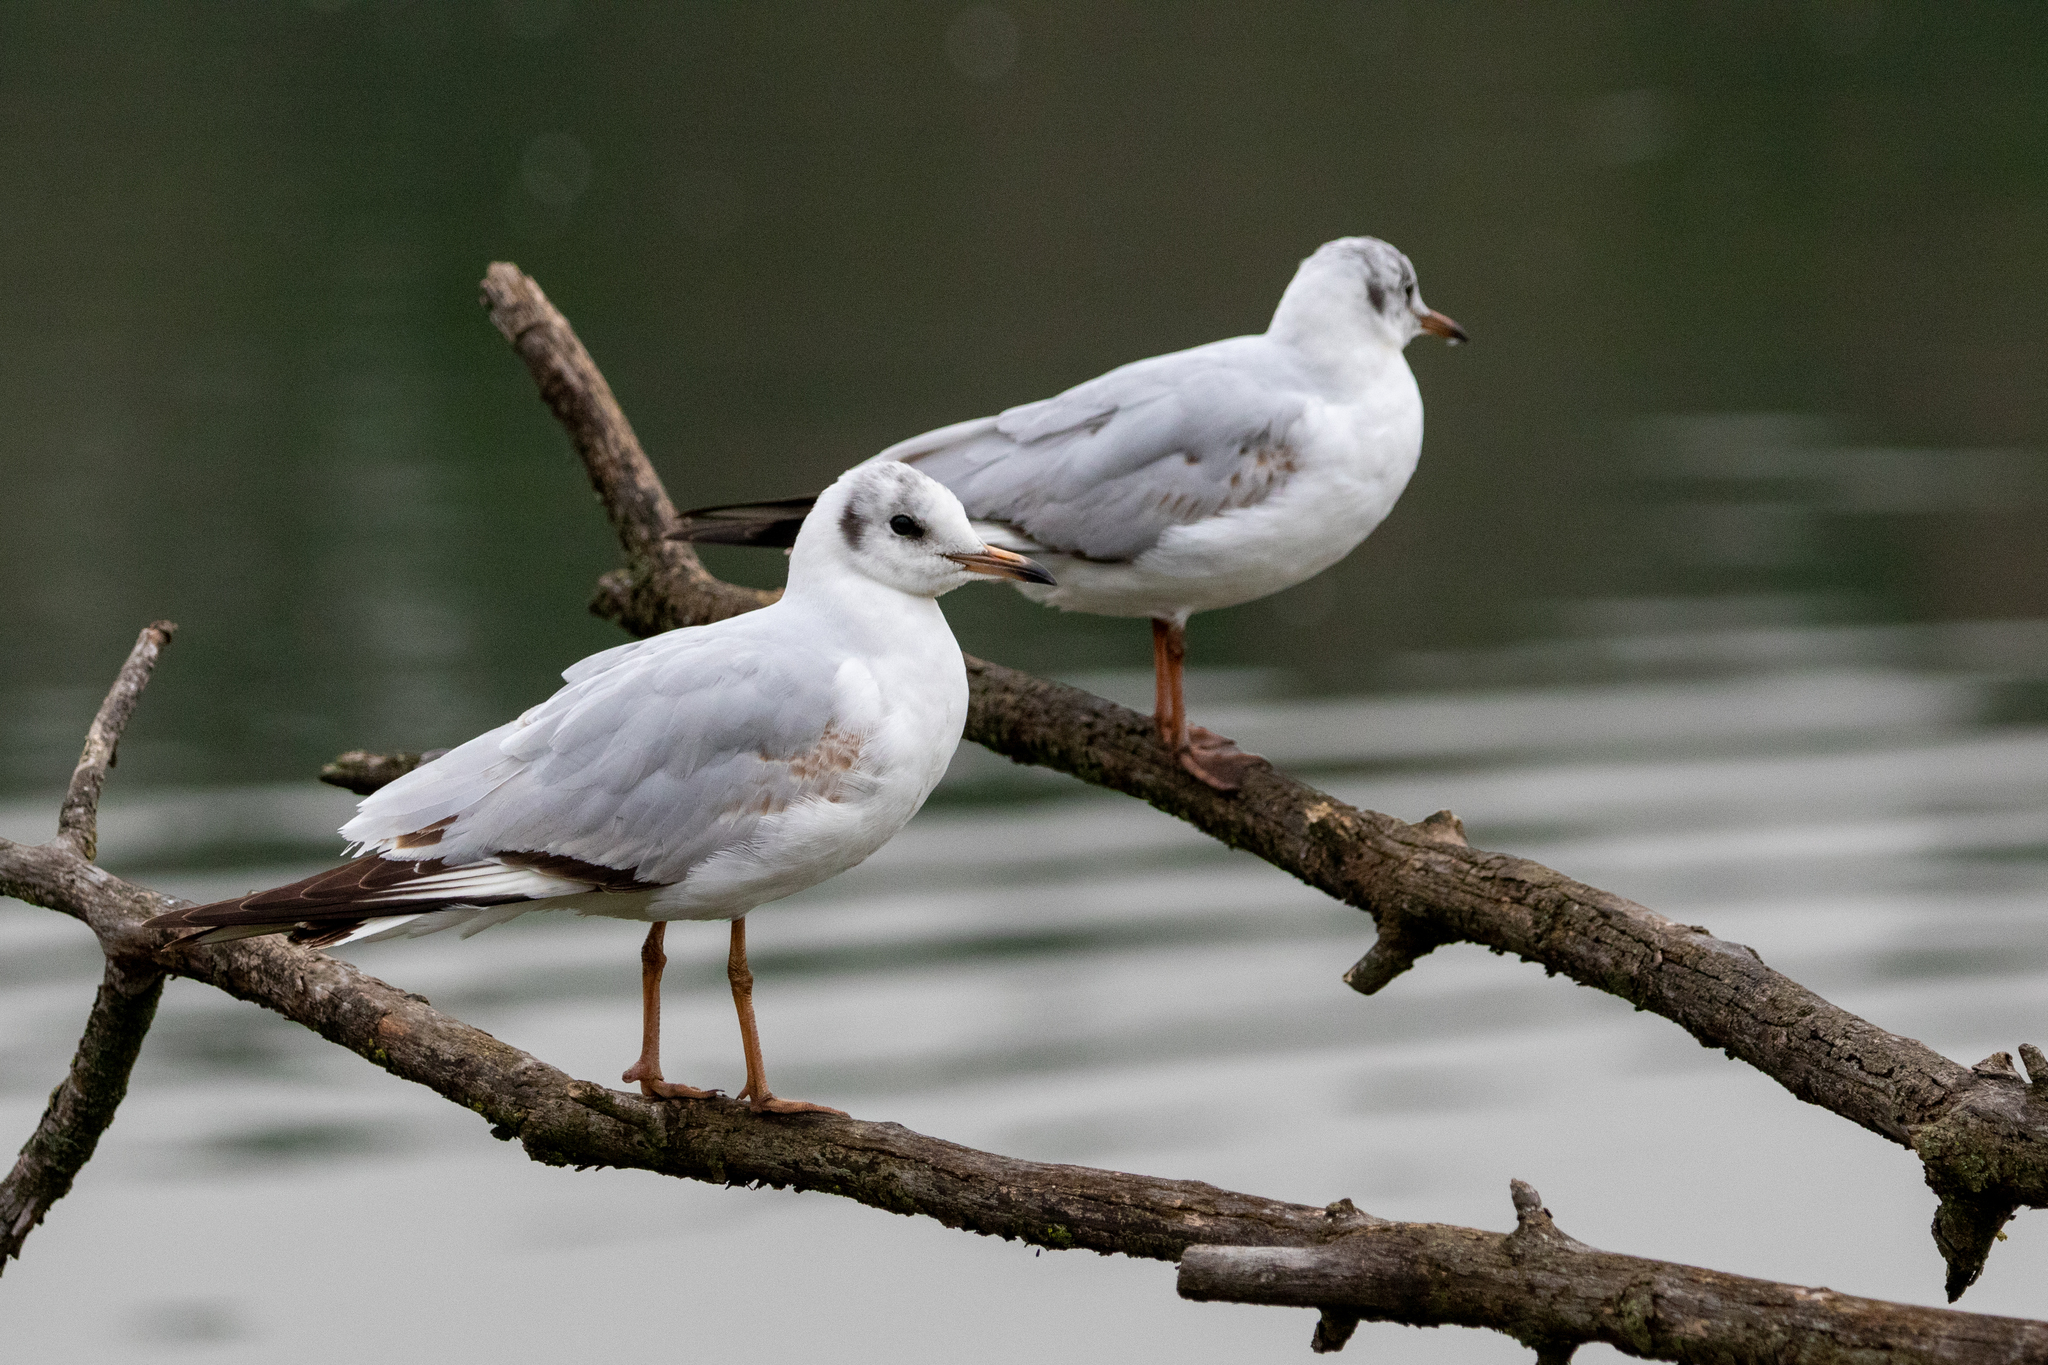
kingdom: Animalia
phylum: Chordata
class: Aves
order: Charadriiformes
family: Laridae
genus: Chroicocephalus
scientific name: Chroicocephalus ridibundus
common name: Black-headed gull
